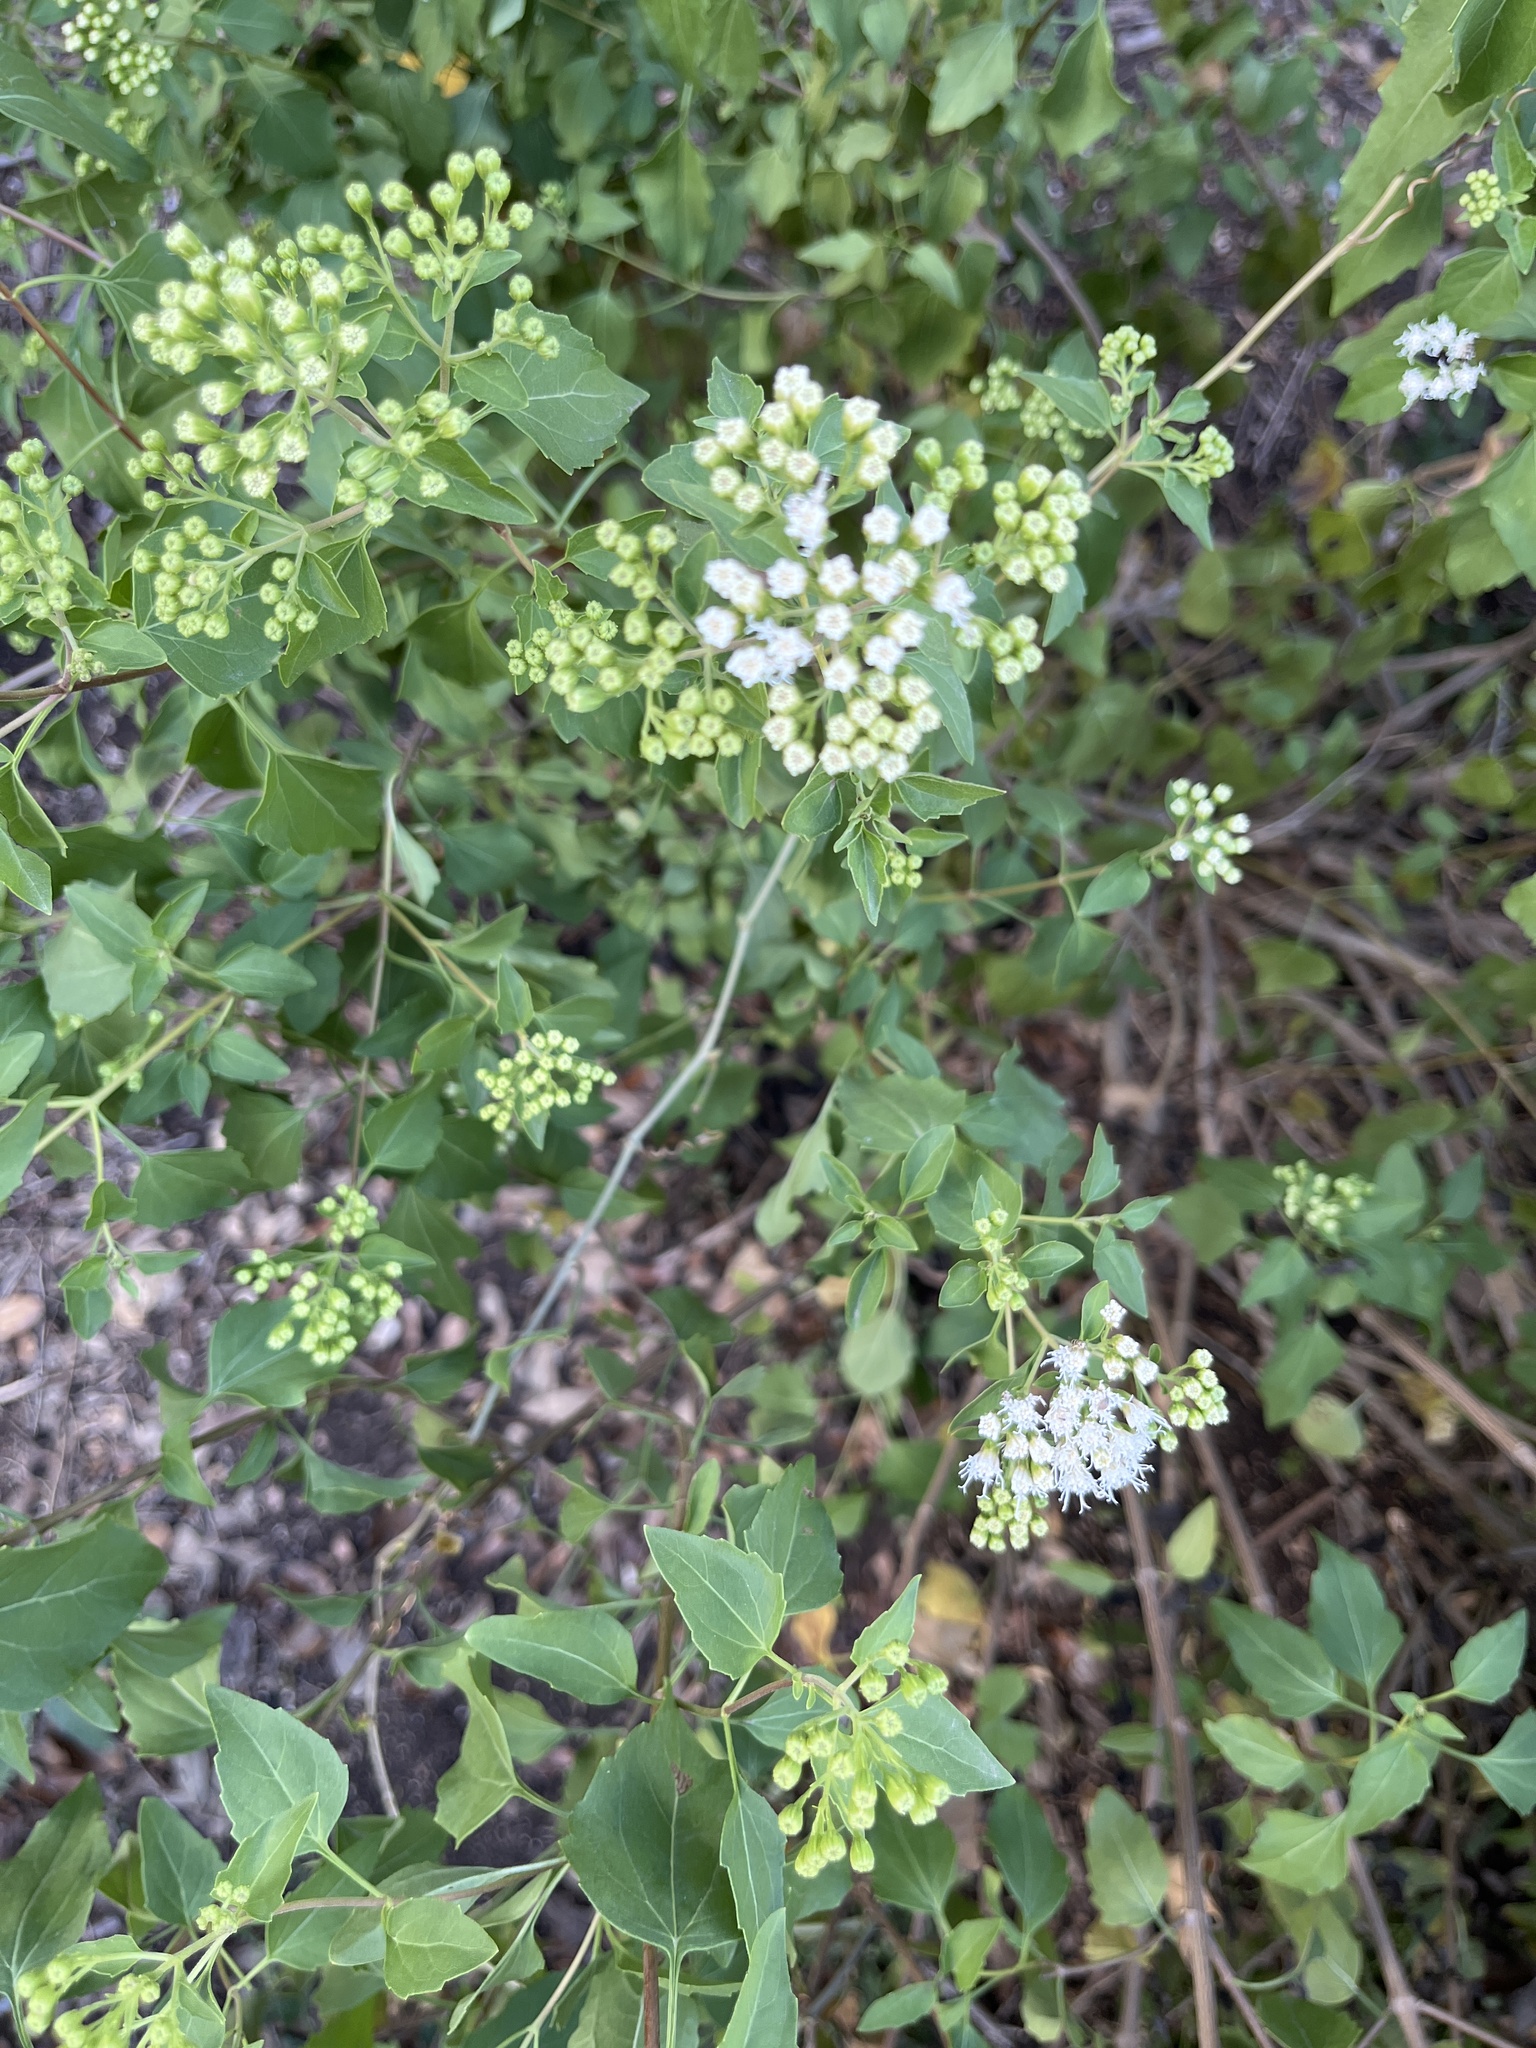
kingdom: Plantae
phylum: Tracheophyta
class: Magnoliopsida
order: Asterales
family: Asteraceae
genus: Ageratina
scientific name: Ageratina havanensis
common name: Havana snakeroot
